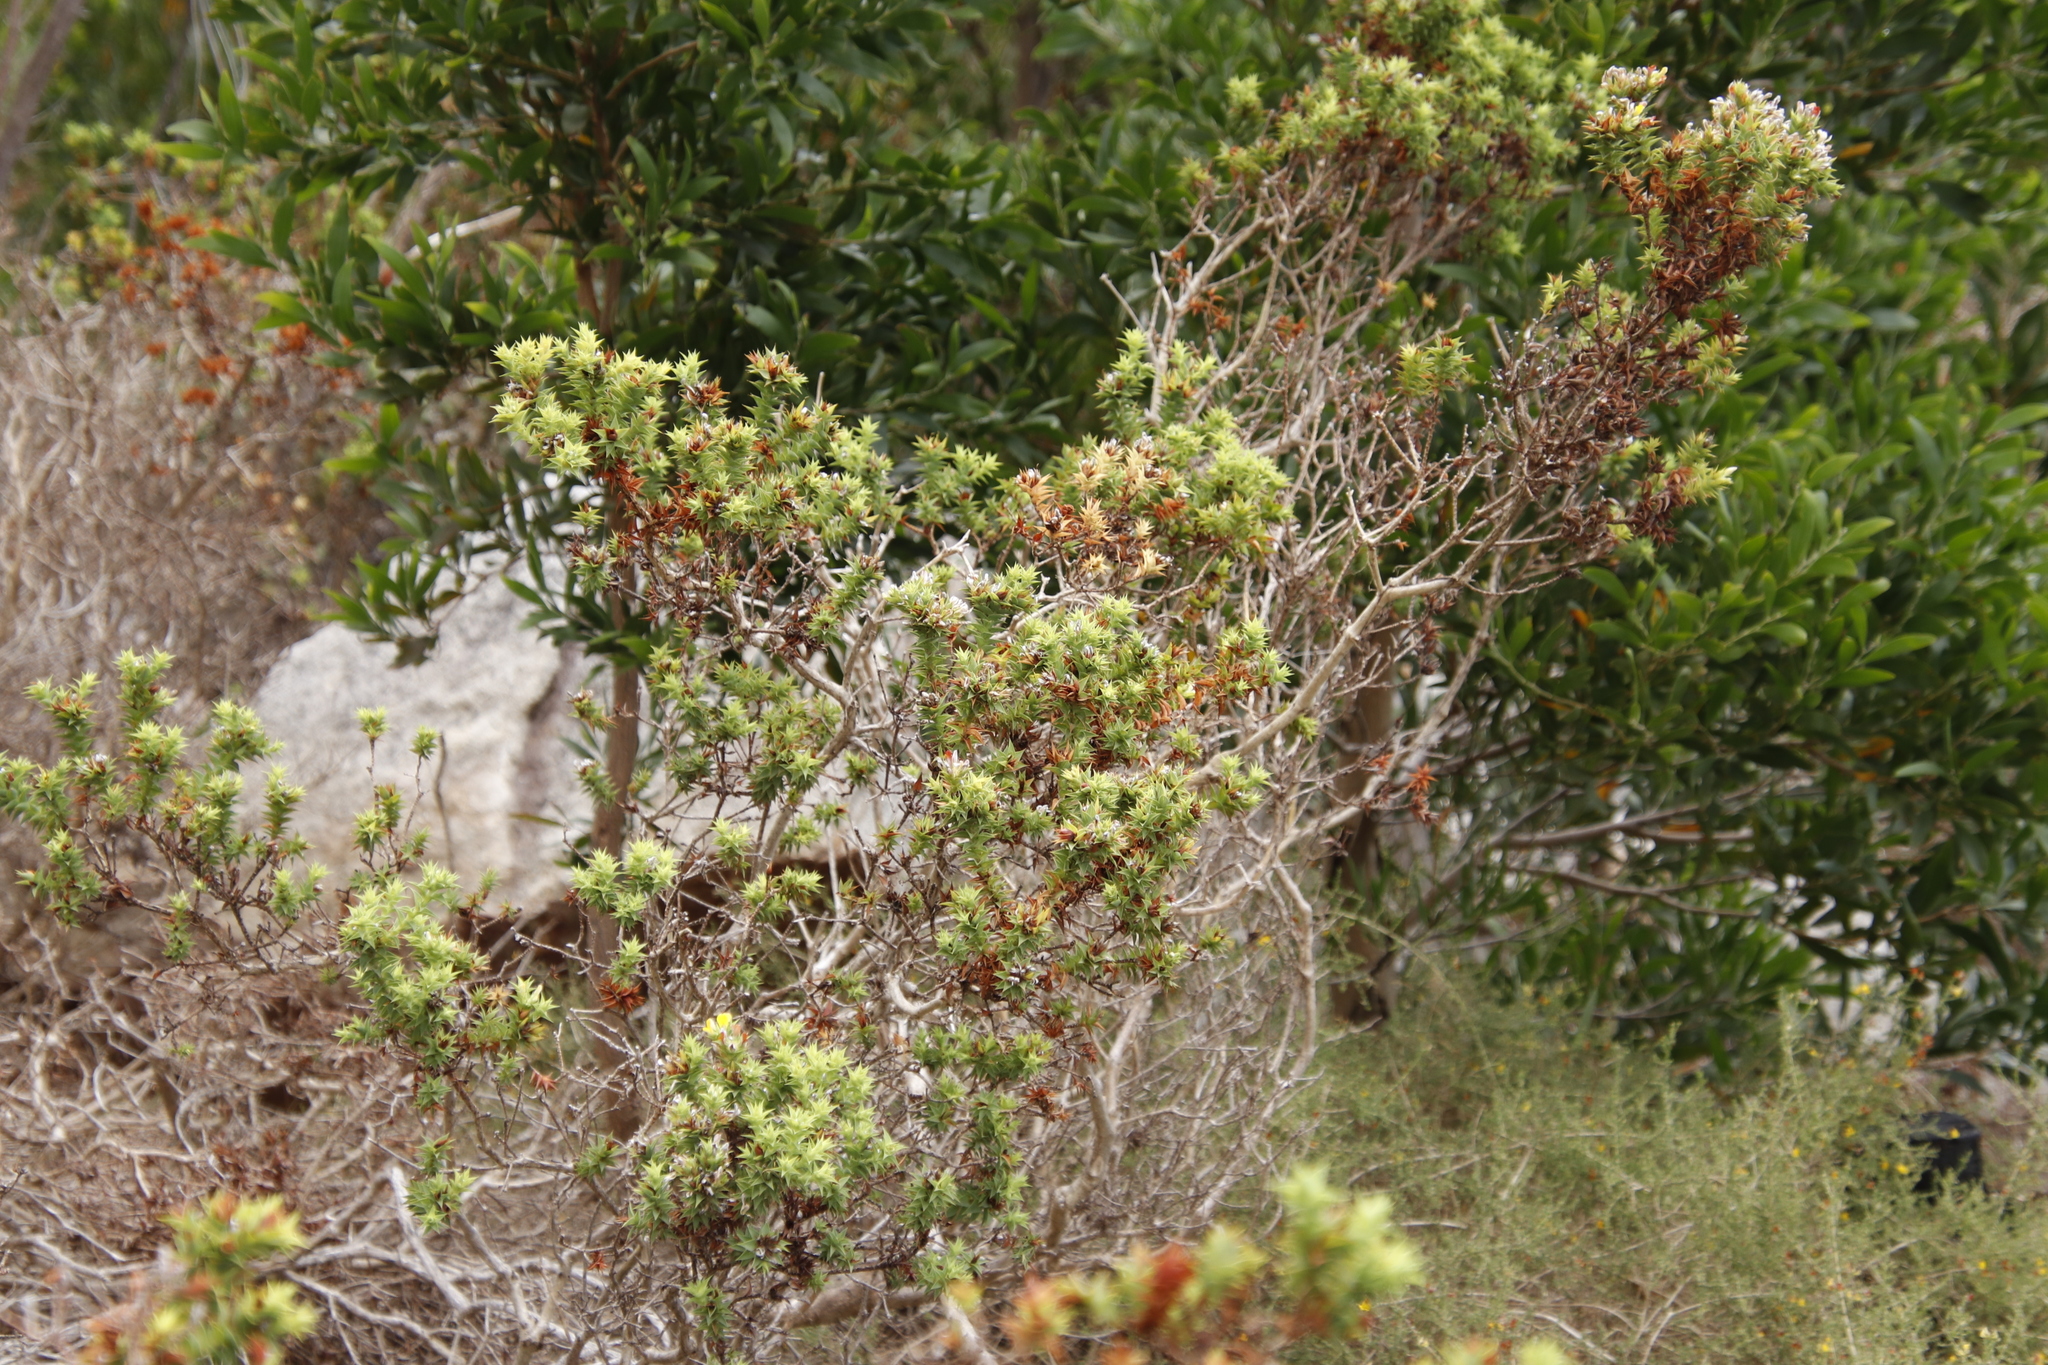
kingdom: Plantae
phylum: Tracheophyta
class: Magnoliopsida
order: Fabales
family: Fabaceae
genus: Aspalathus
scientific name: Aspalathus cordata
